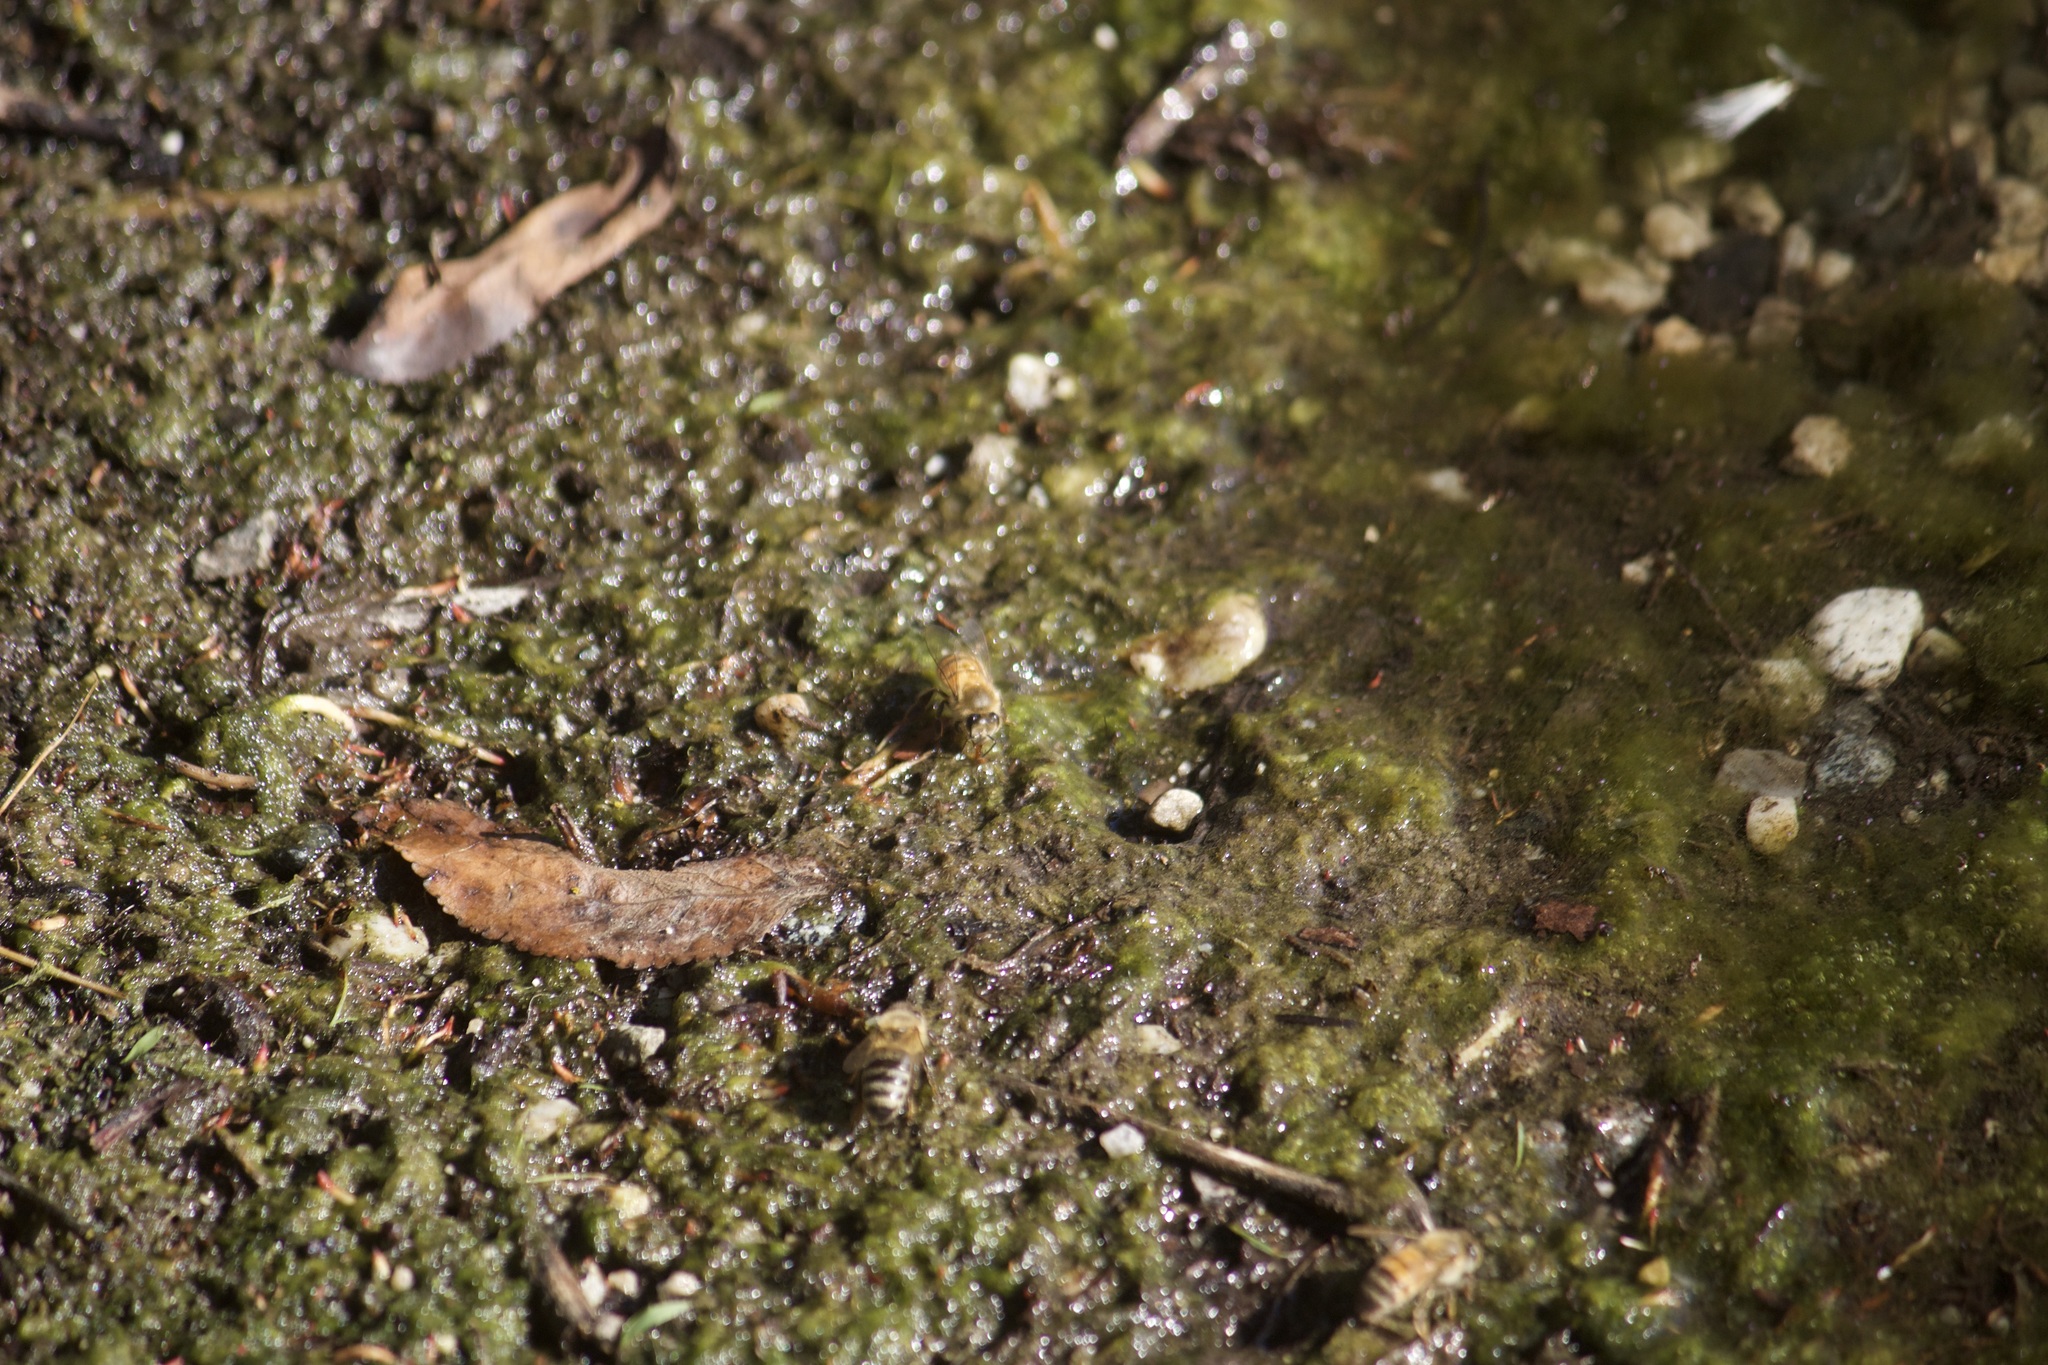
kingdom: Animalia
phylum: Arthropoda
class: Insecta
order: Hymenoptera
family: Apidae
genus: Apis
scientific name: Apis mellifera
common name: Honey bee
